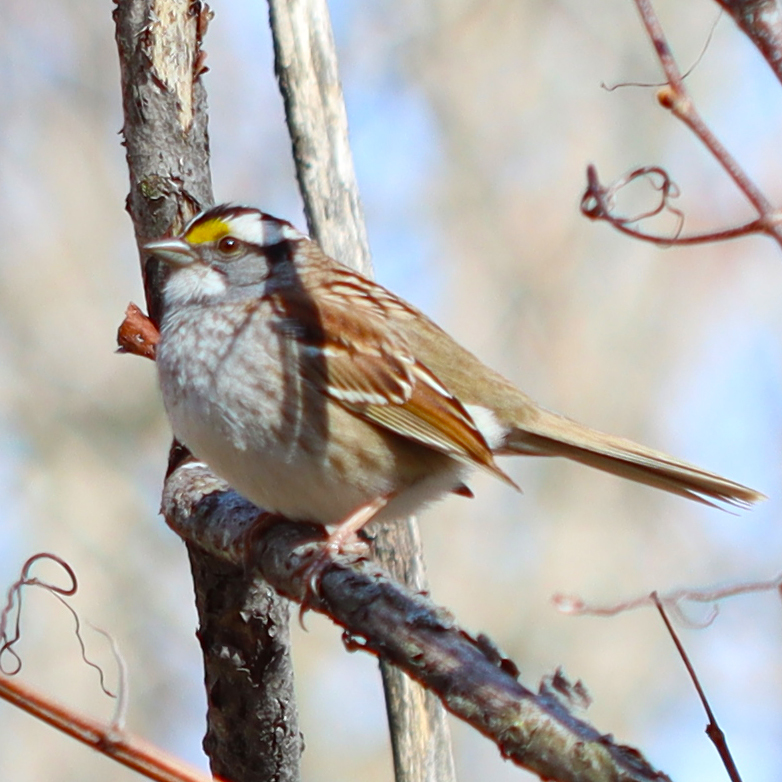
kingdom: Animalia
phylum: Chordata
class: Aves
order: Passeriformes
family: Passerellidae
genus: Zonotrichia
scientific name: Zonotrichia albicollis
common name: White-throated sparrow
